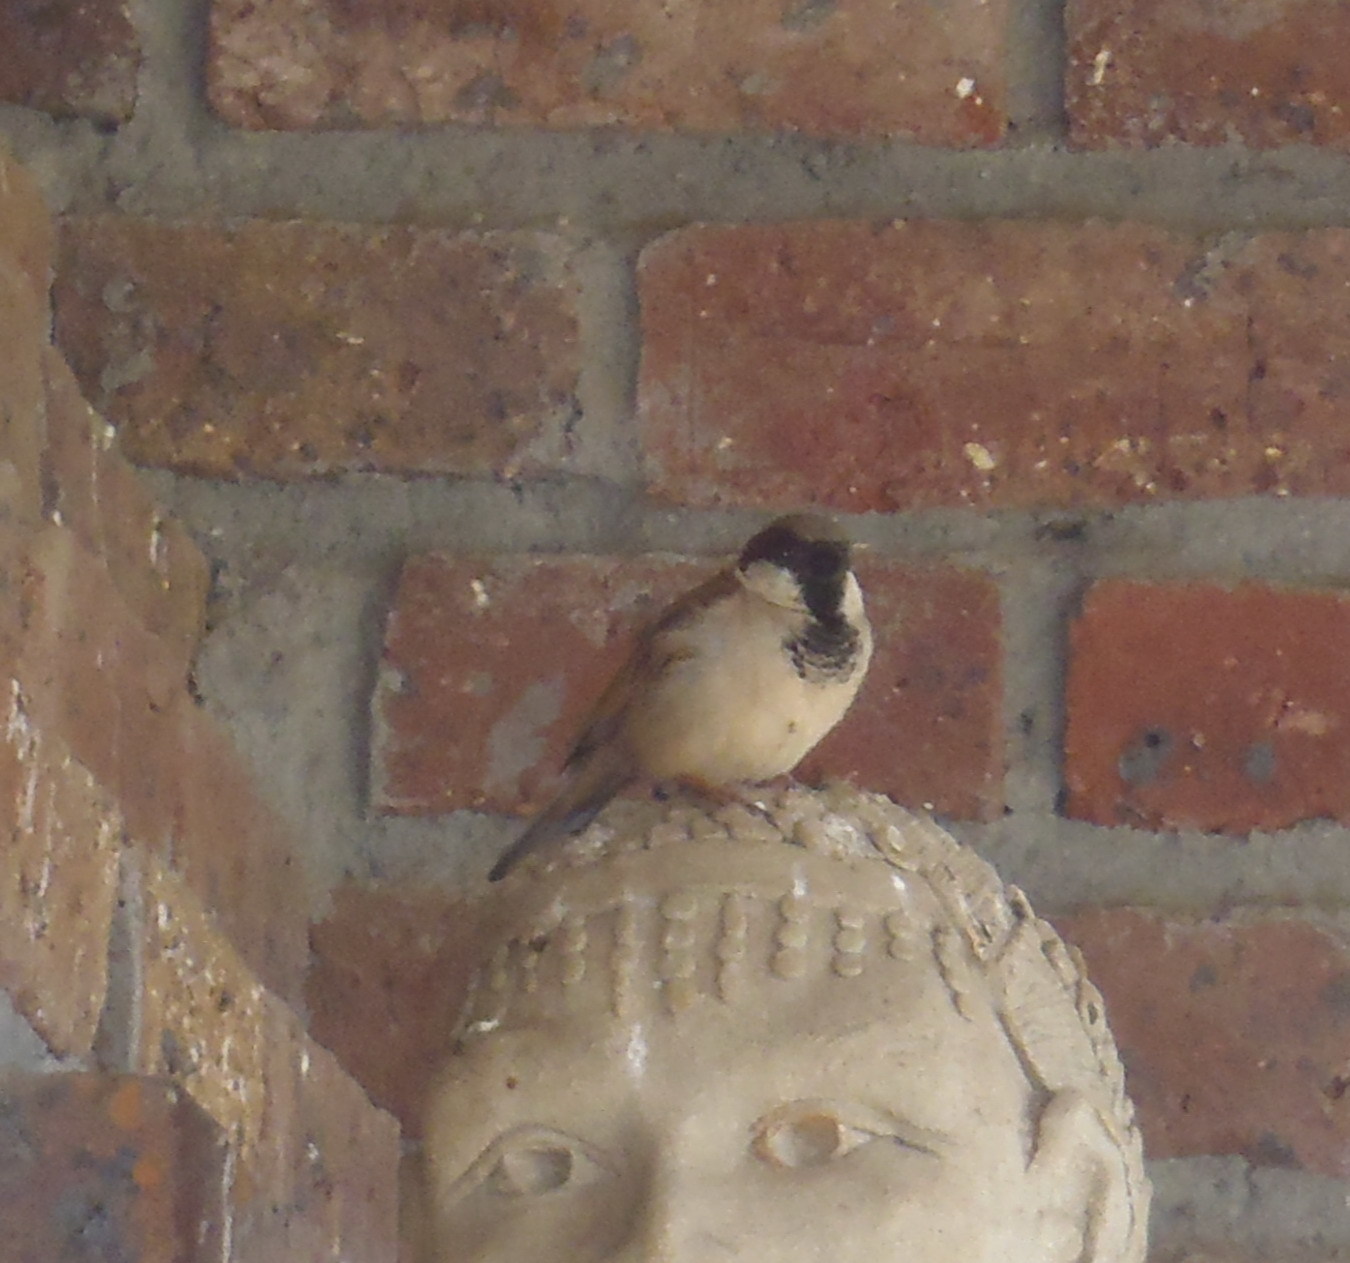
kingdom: Animalia
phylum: Chordata
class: Aves
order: Passeriformes
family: Passeridae
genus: Passer
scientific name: Passer domesticus
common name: House sparrow
